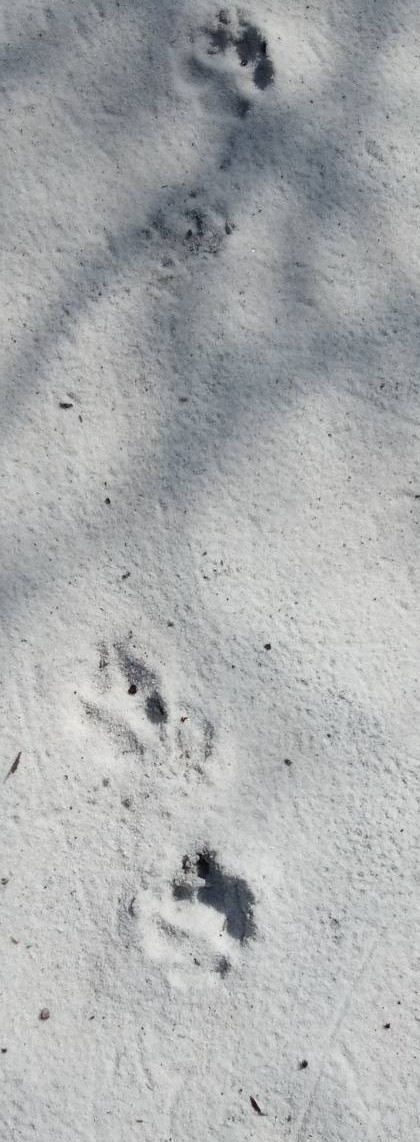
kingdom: Animalia
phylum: Chordata
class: Mammalia
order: Carnivora
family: Canidae
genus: Canis
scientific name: Canis latrans
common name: Coyote
